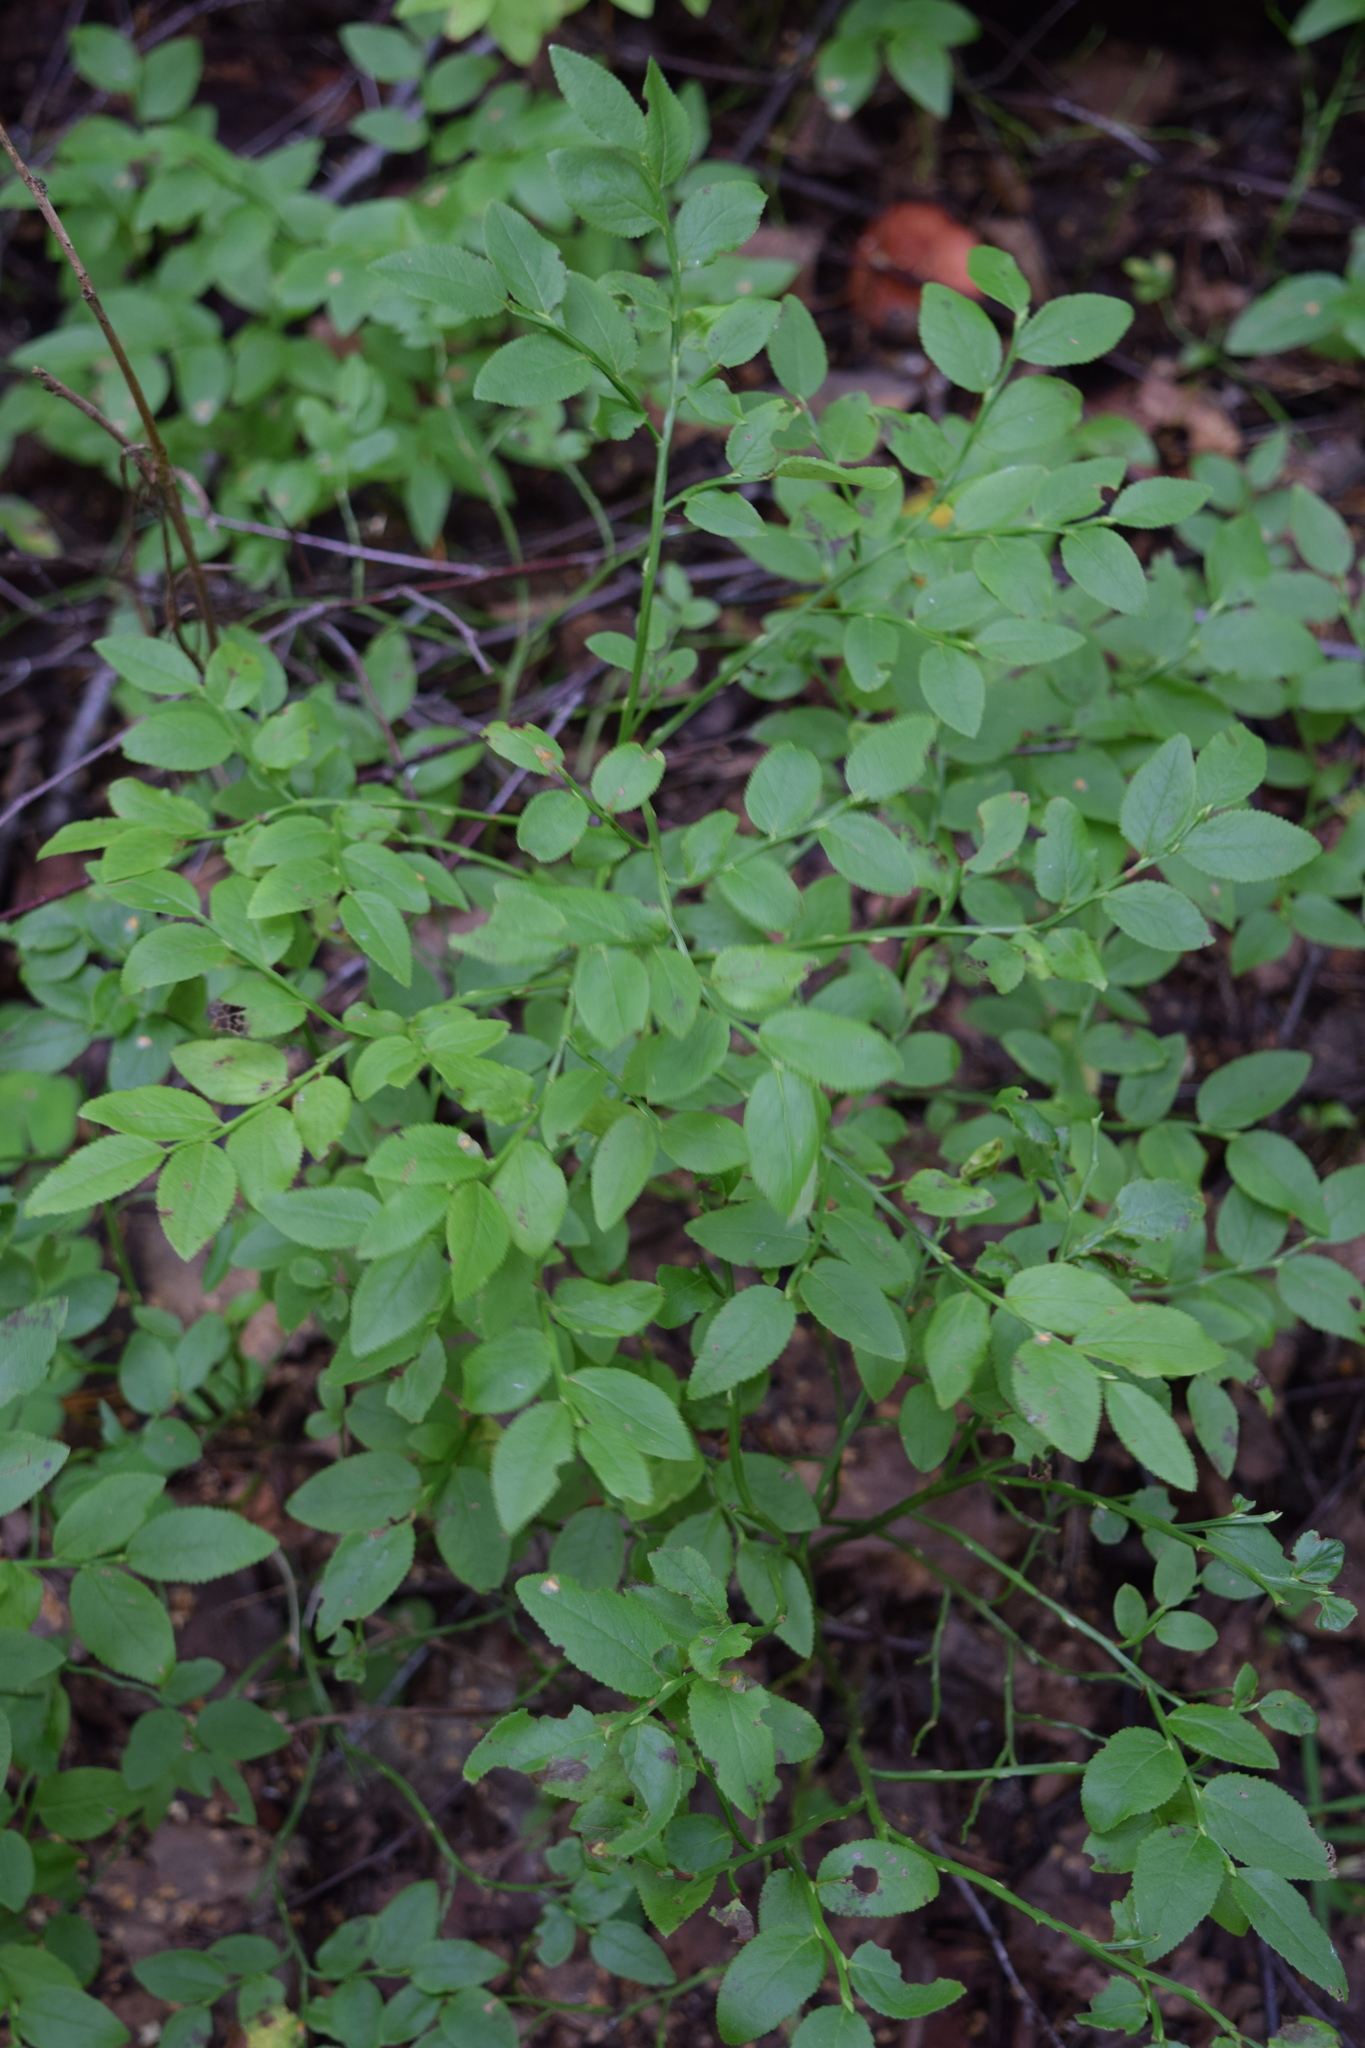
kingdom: Plantae
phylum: Tracheophyta
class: Magnoliopsida
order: Ericales
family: Ericaceae
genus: Vaccinium
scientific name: Vaccinium myrtillus
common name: Bilberry
